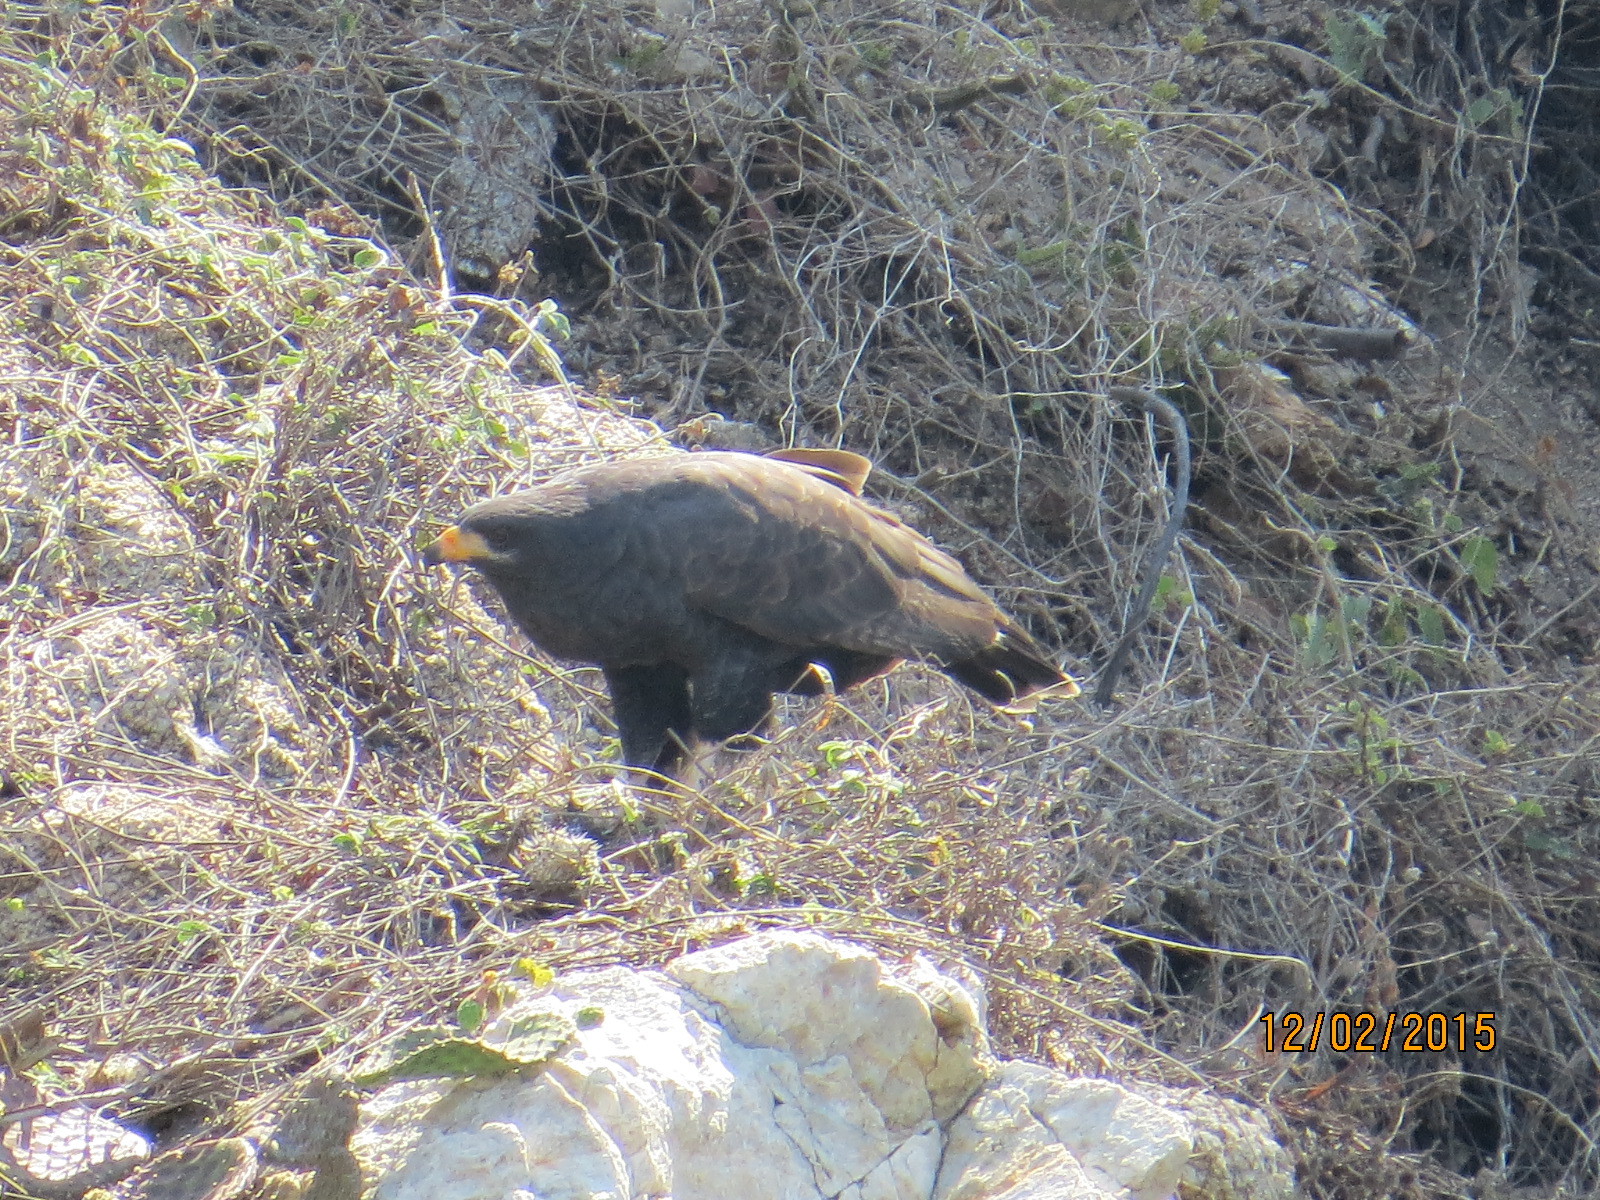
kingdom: Animalia
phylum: Chordata
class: Aves
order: Accipitriformes
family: Accipitridae
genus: Buteogallus
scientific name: Buteogallus anthracinus
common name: Common black hawk
